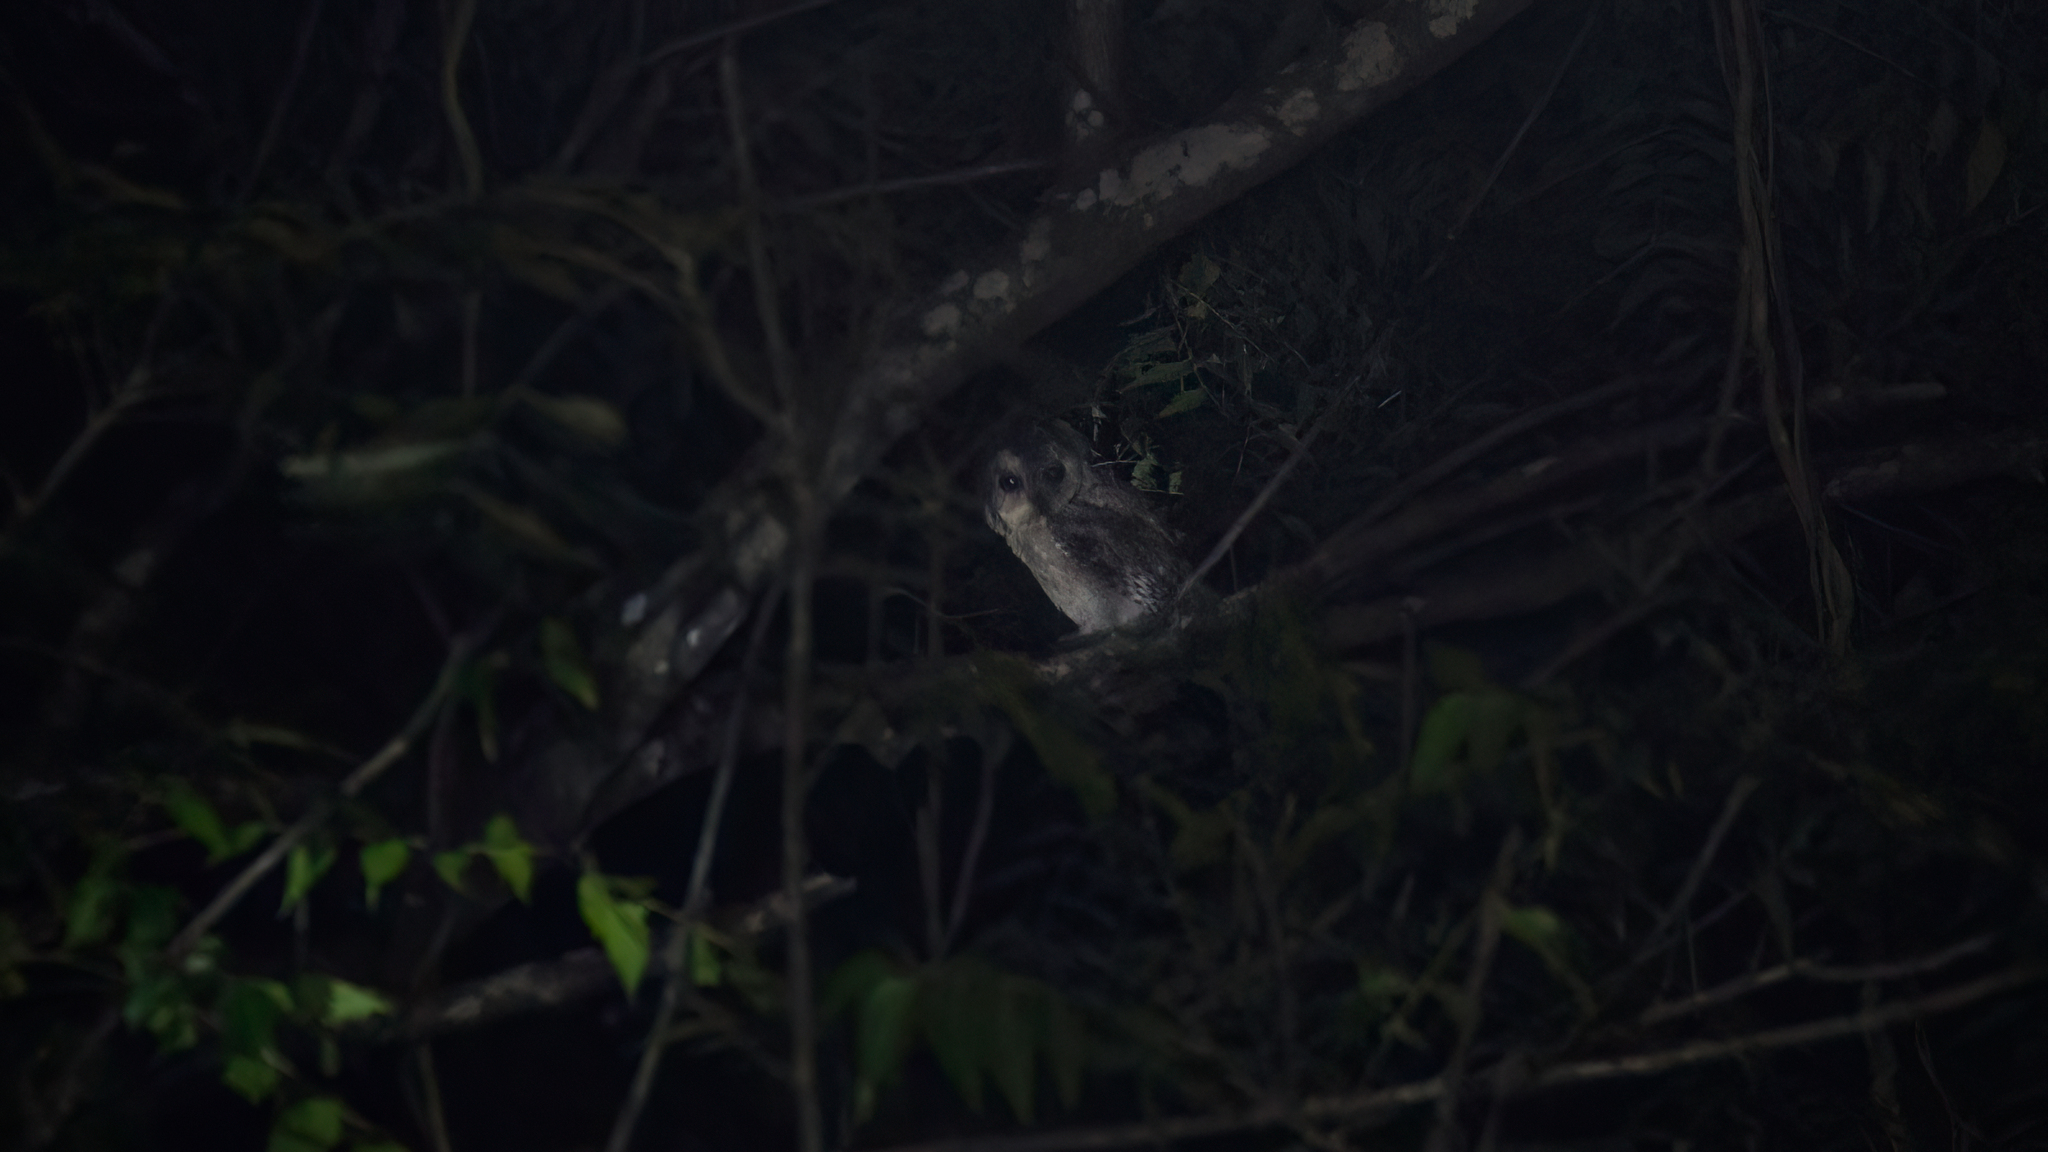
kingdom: Animalia
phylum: Chordata
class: Aves
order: Strigiformes
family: Strigidae
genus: Otus
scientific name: Otus bakkamoena
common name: Indian scops owl
